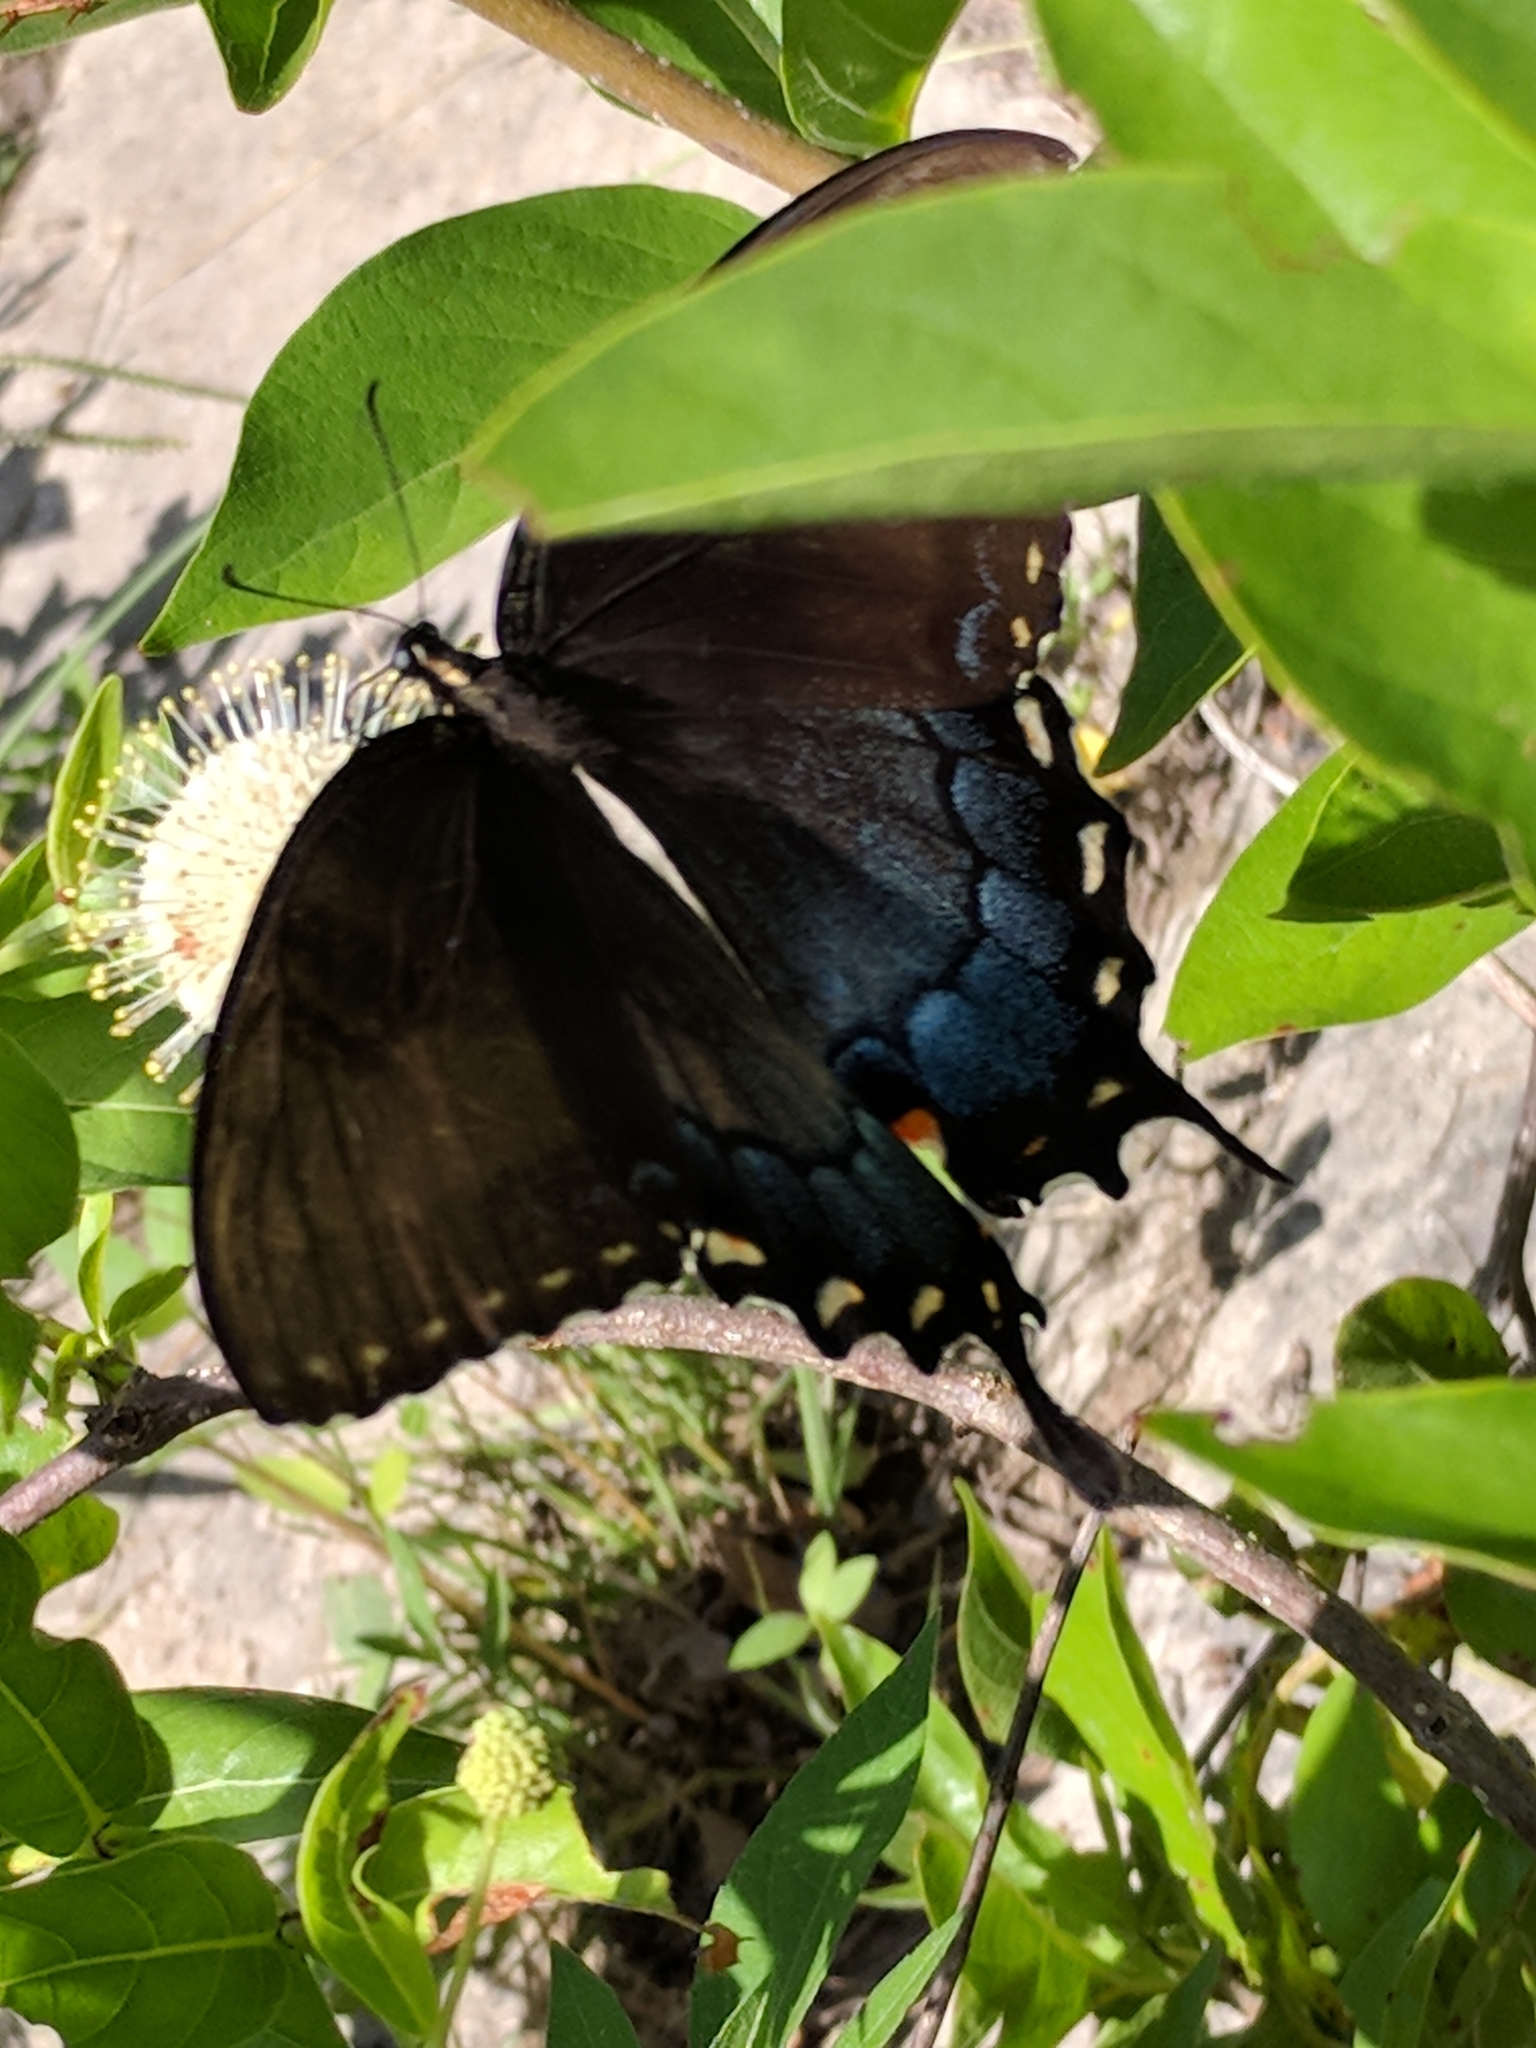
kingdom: Animalia
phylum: Arthropoda
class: Insecta
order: Lepidoptera
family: Papilionidae
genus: Papilio
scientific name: Papilio glaucus
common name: Tiger swallowtail
